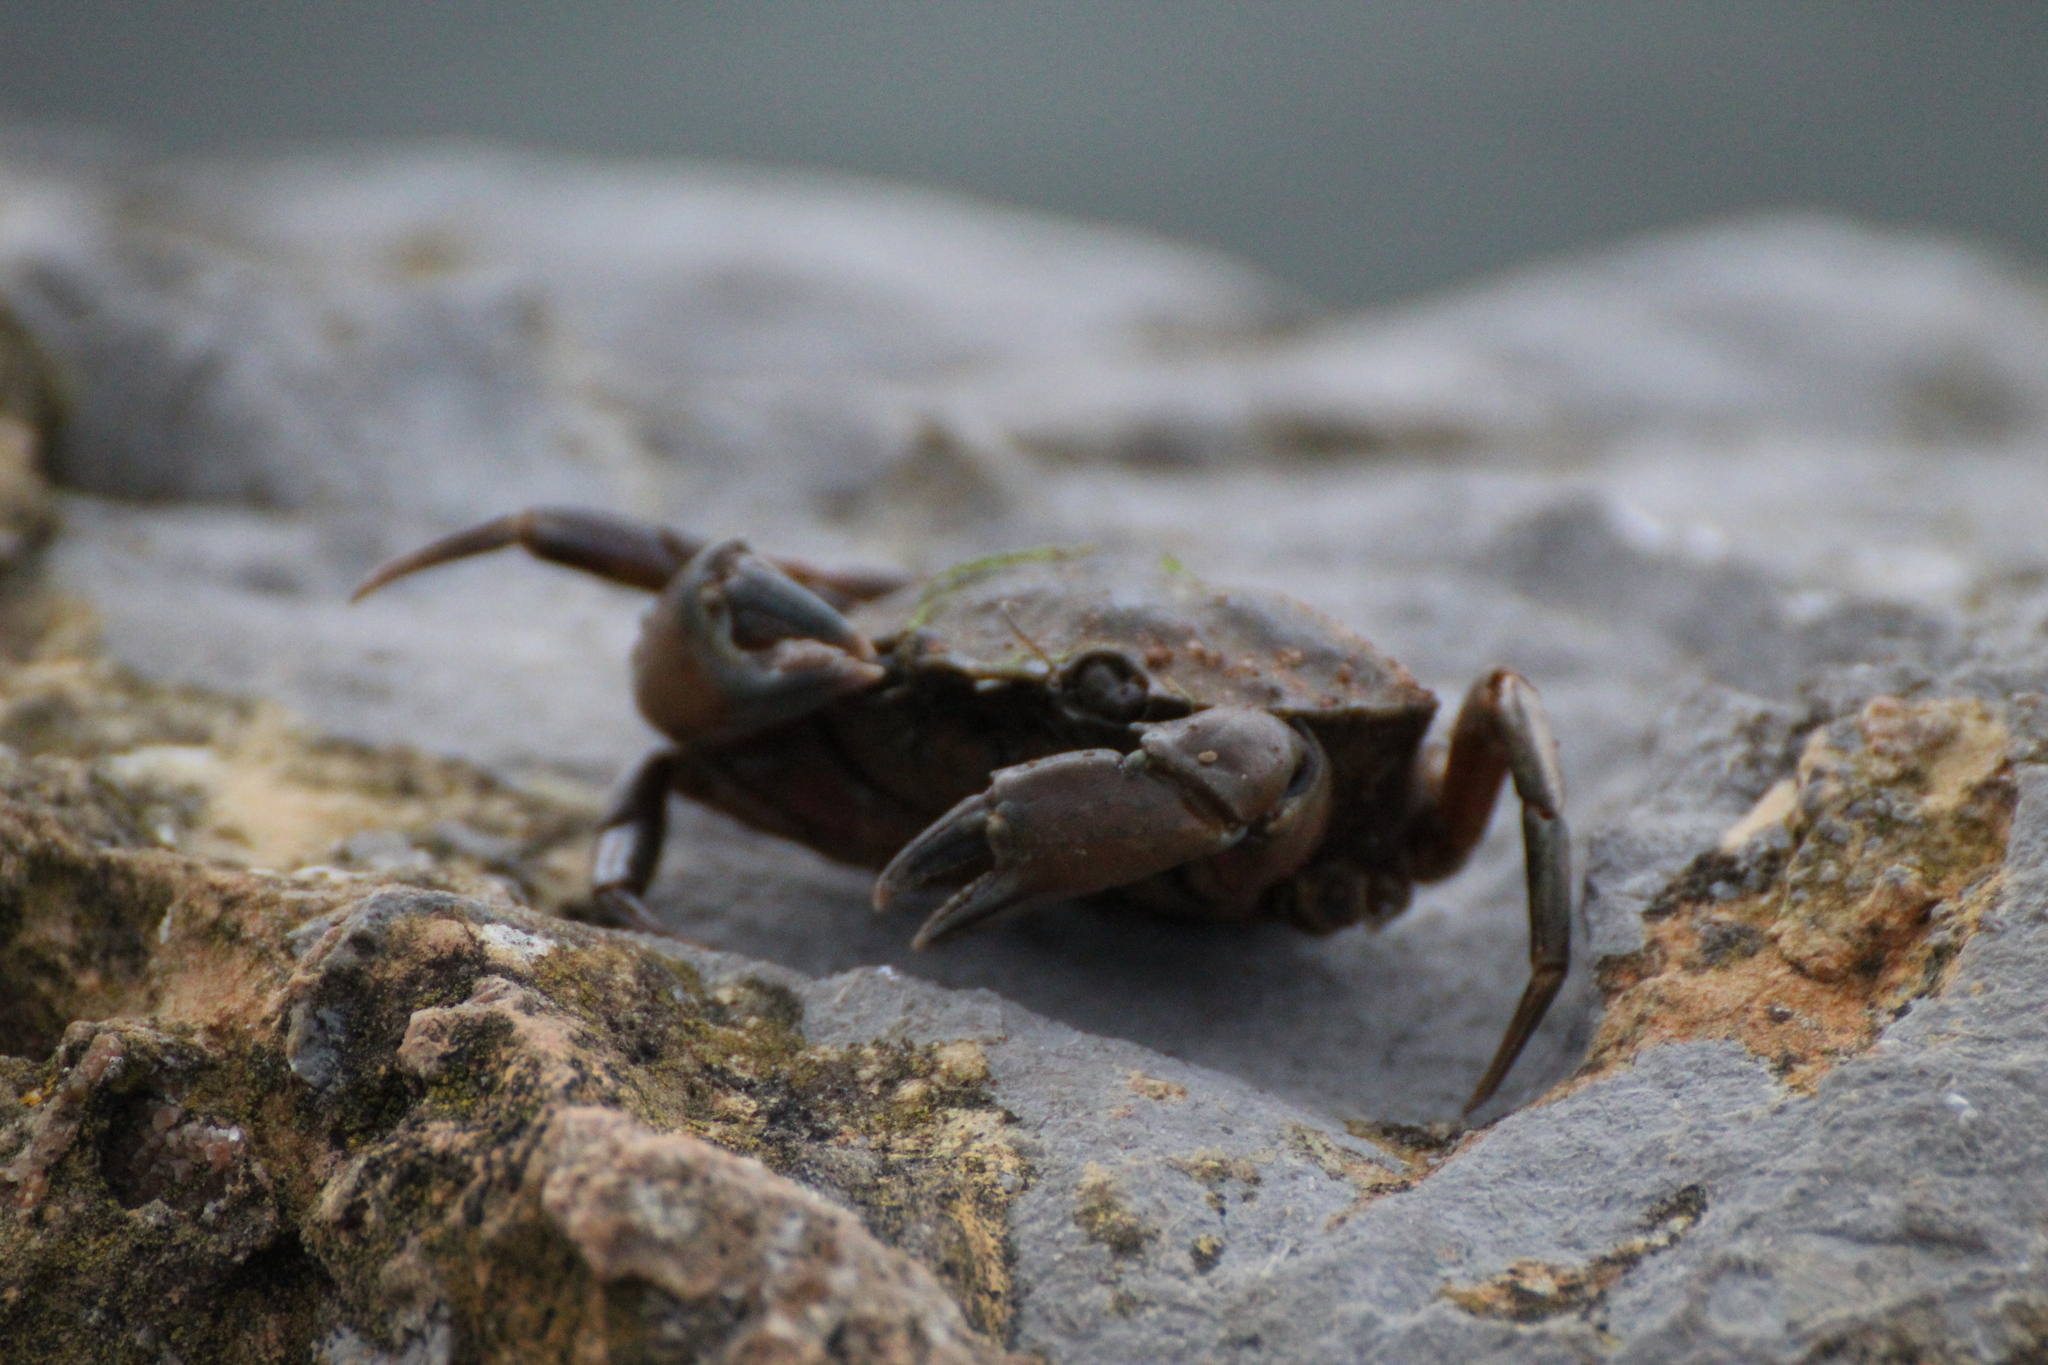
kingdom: Animalia
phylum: Arthropoda
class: Malacostraca
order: Decapoda
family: Carcinidae
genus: Carcinus
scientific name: Carcinus maenas
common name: European green crab
